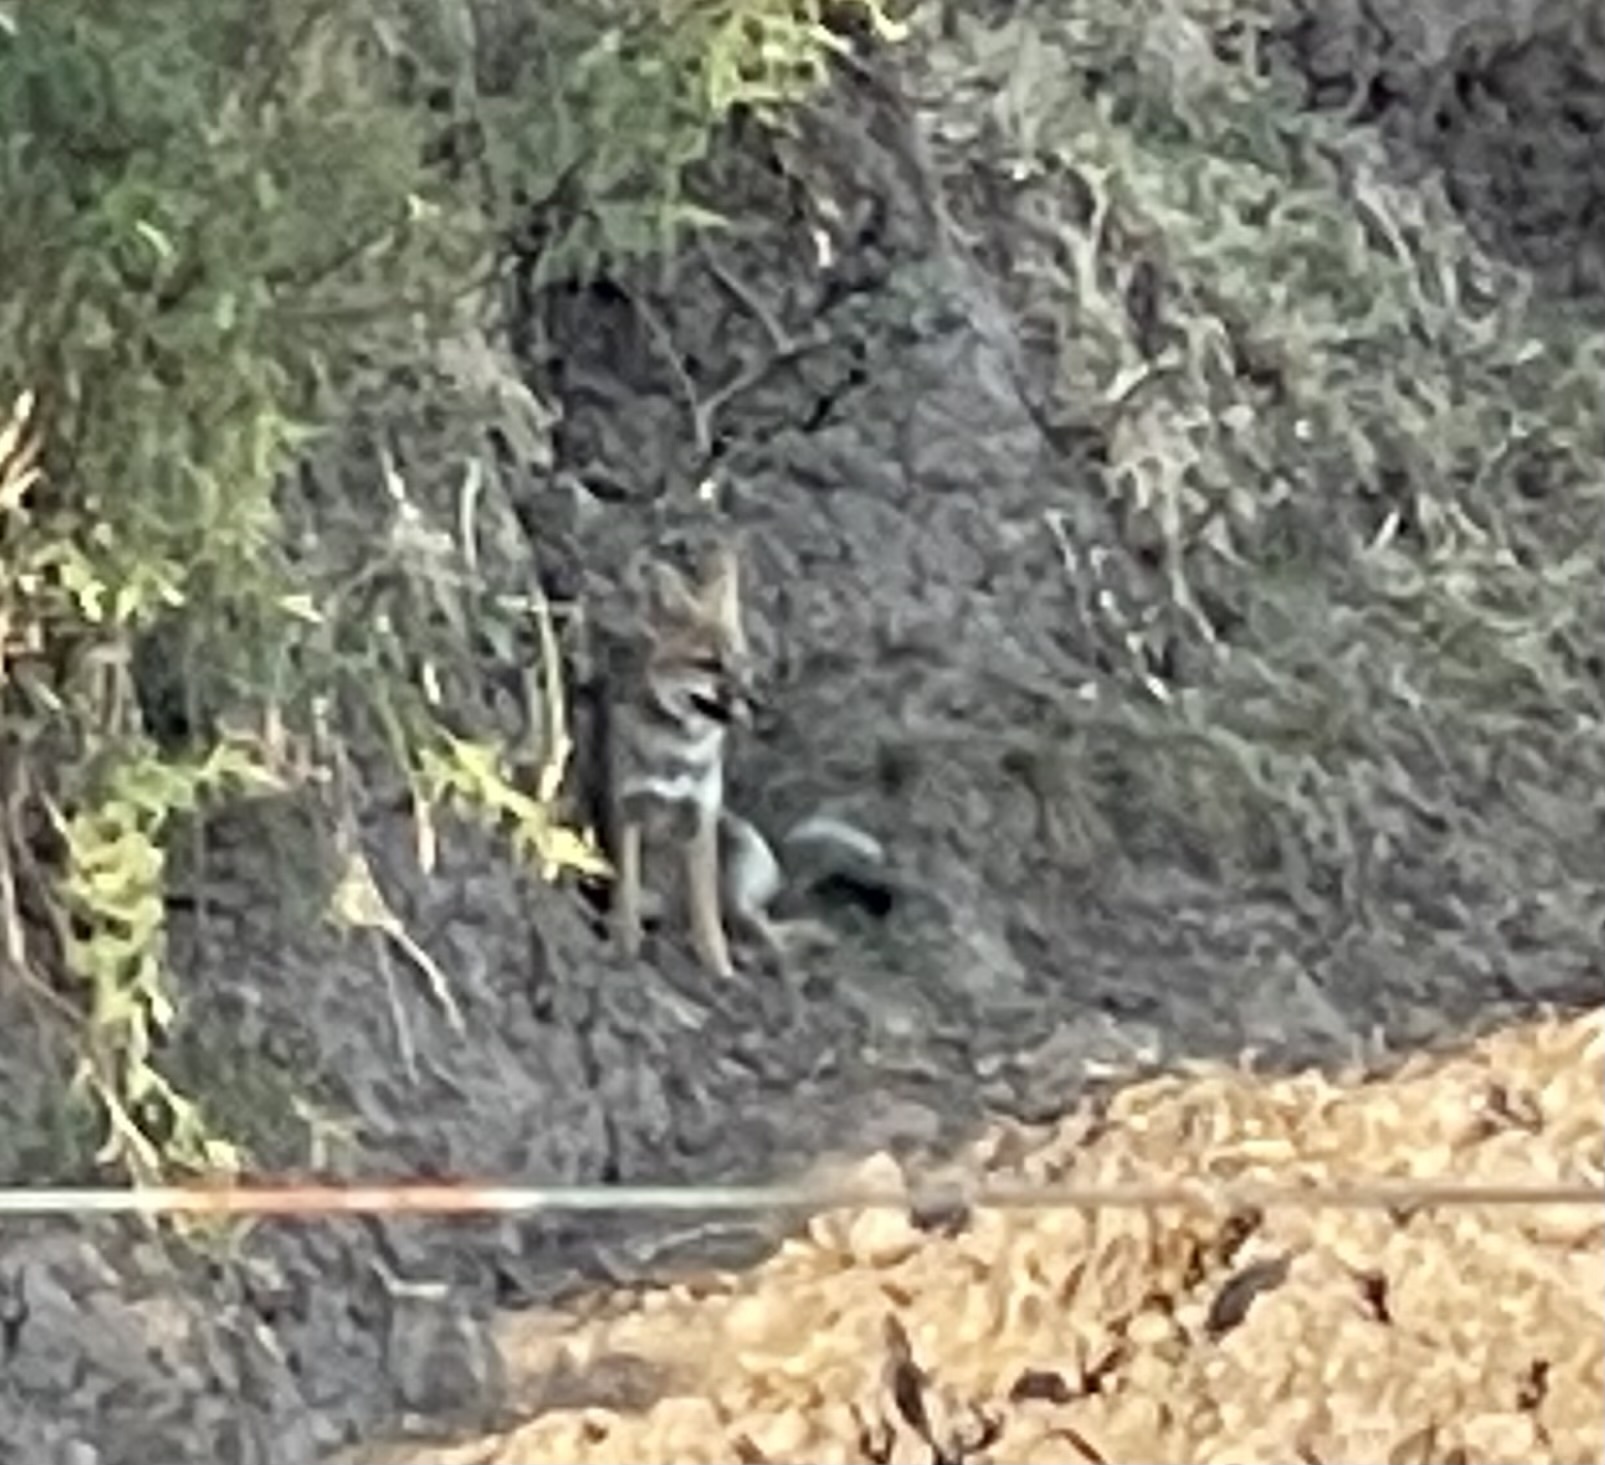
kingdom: Animalia
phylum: Chordata
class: Mammalia
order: Carnivora
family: Canidae
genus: Lycalopex
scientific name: Lycalopex gymnocercus
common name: Pampas fox
